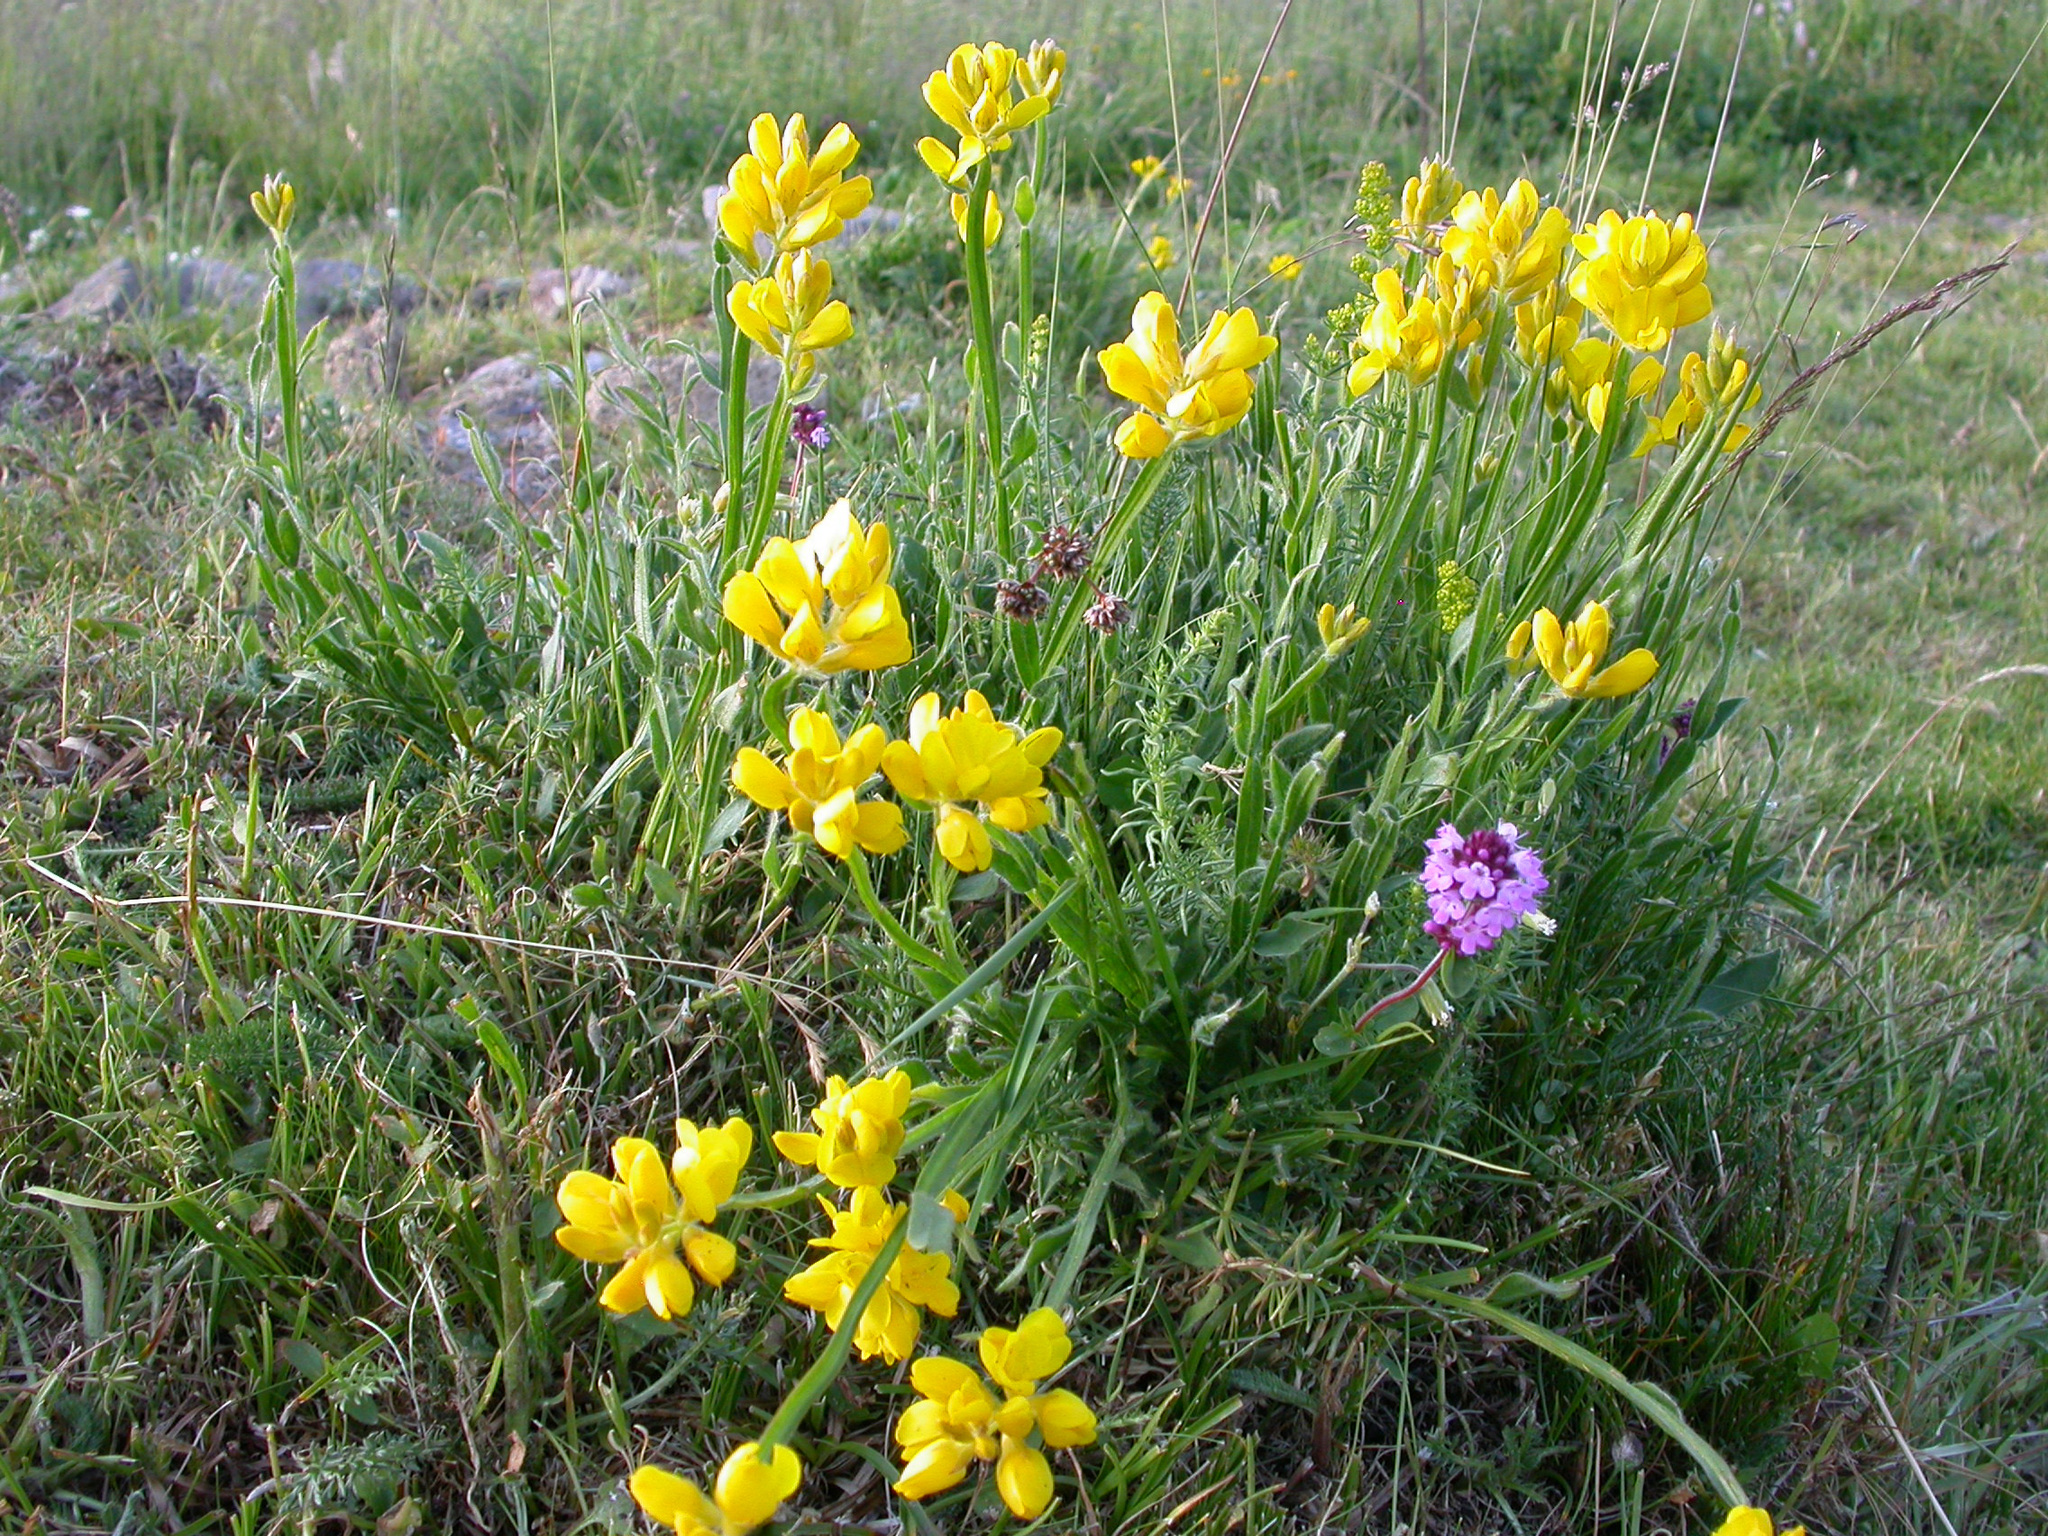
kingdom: Plantae
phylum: Tracheophyta
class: Magnoliopsida
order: Fabales
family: Fabaceae
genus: Genista
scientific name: Genista sagittalis
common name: Winged greenweed
